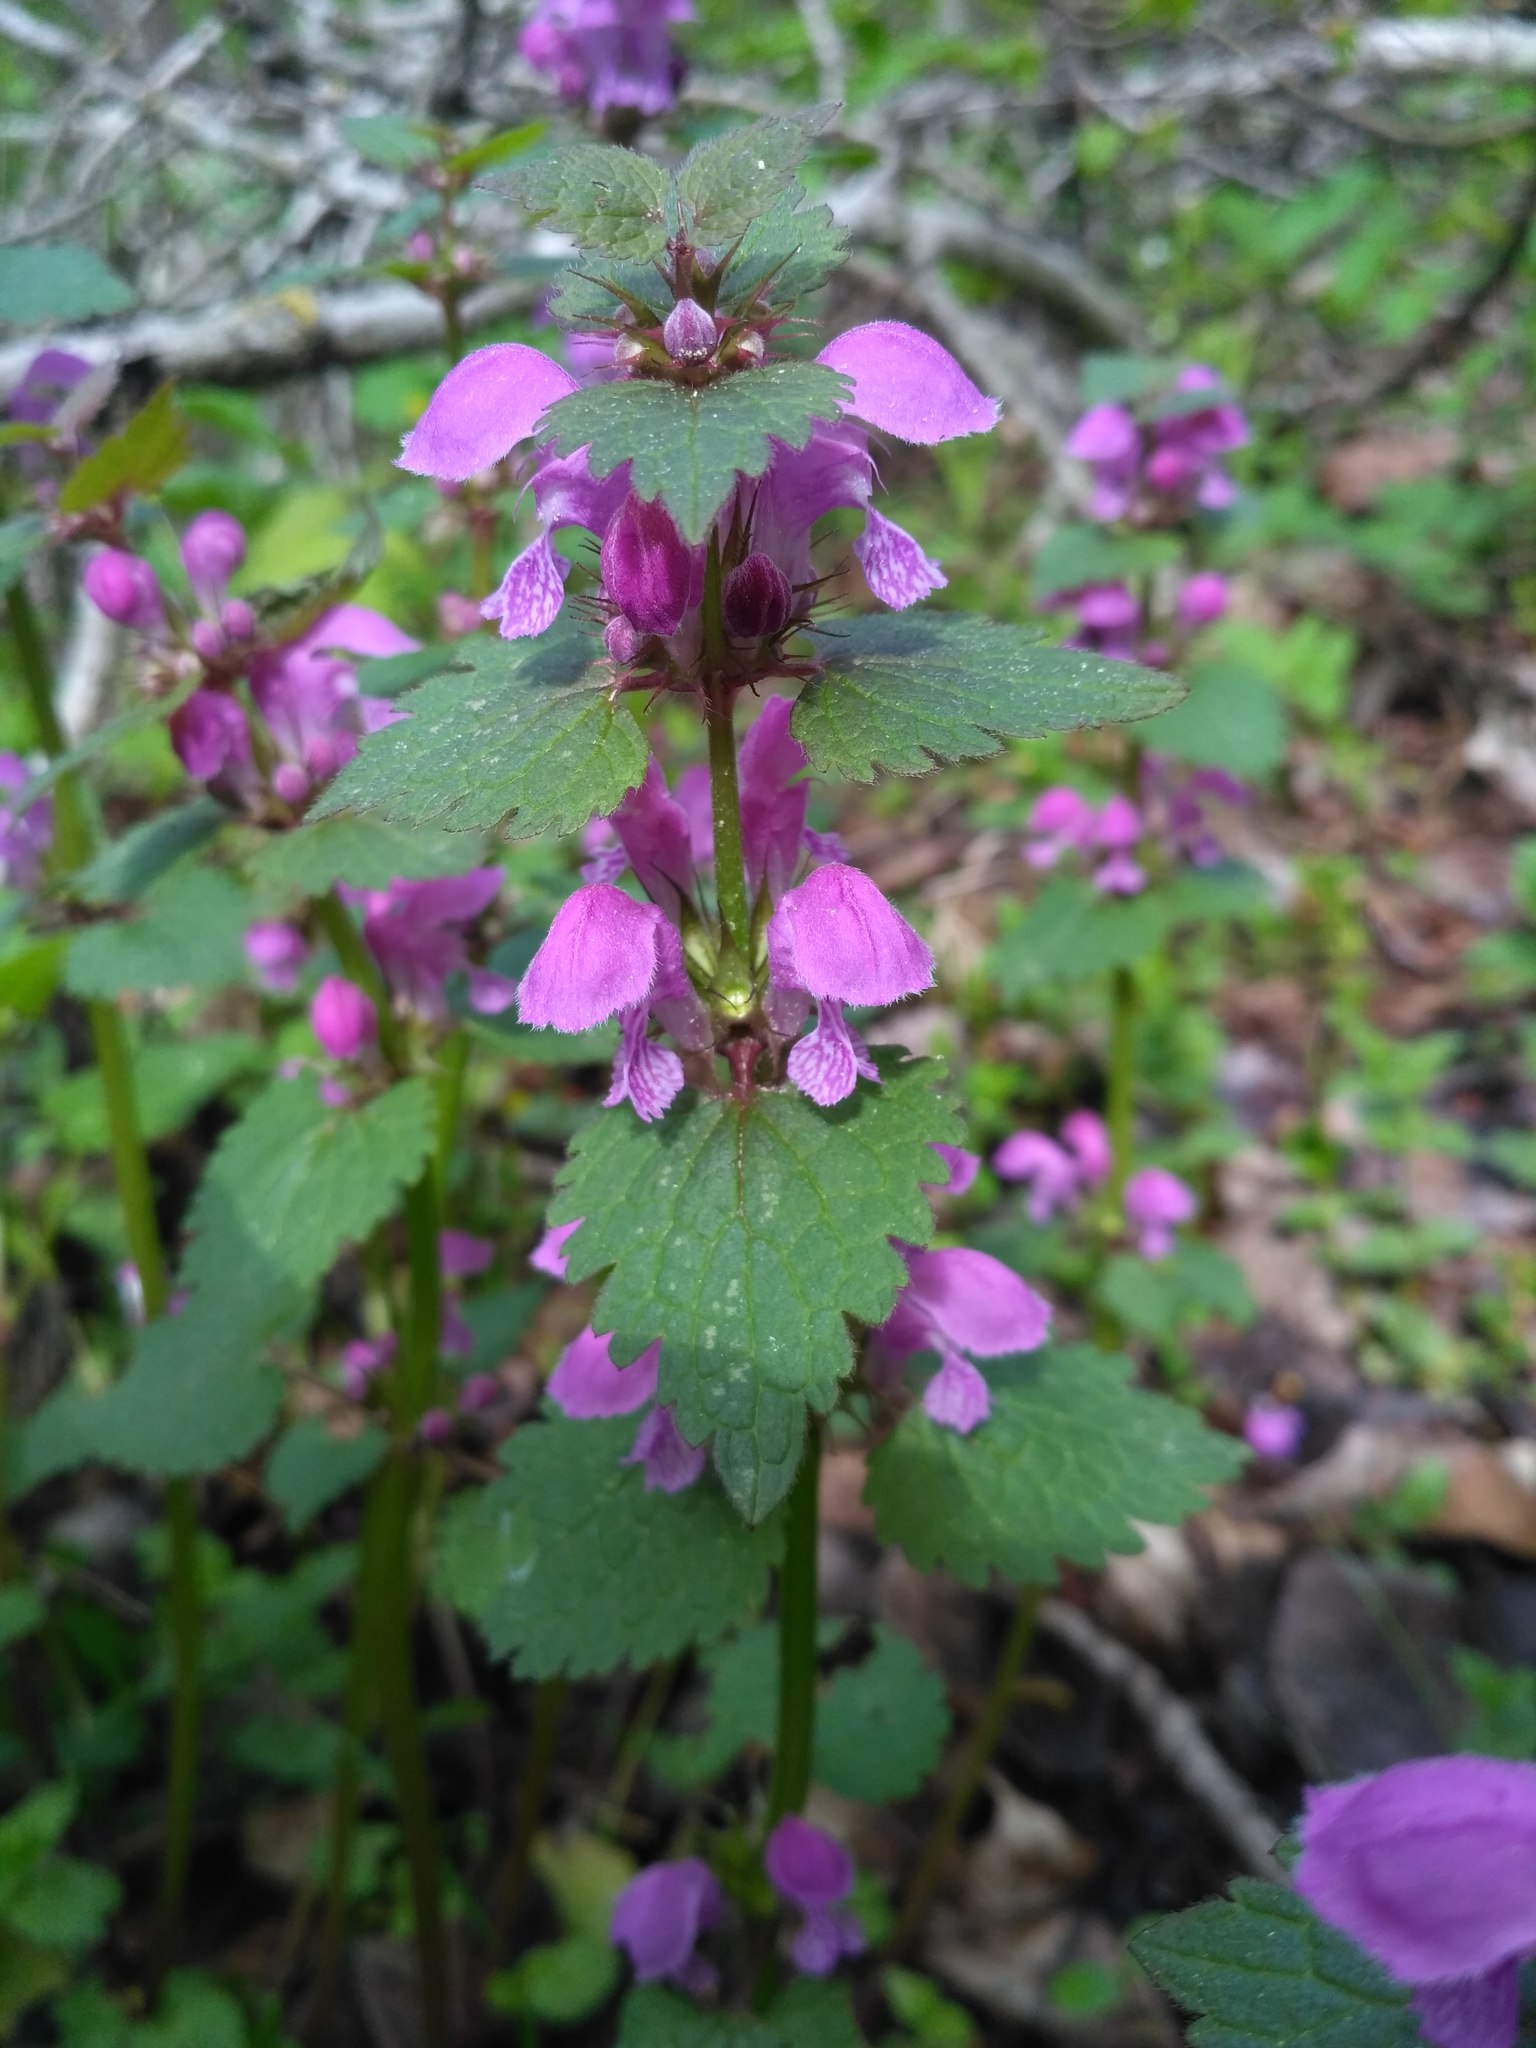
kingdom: Plantae
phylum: Tracheophyta
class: Magnoliopsida
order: Lamiales
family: Lamiaceae
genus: Lamium
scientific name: Lamium maculatum
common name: Spotted dead-nettle
